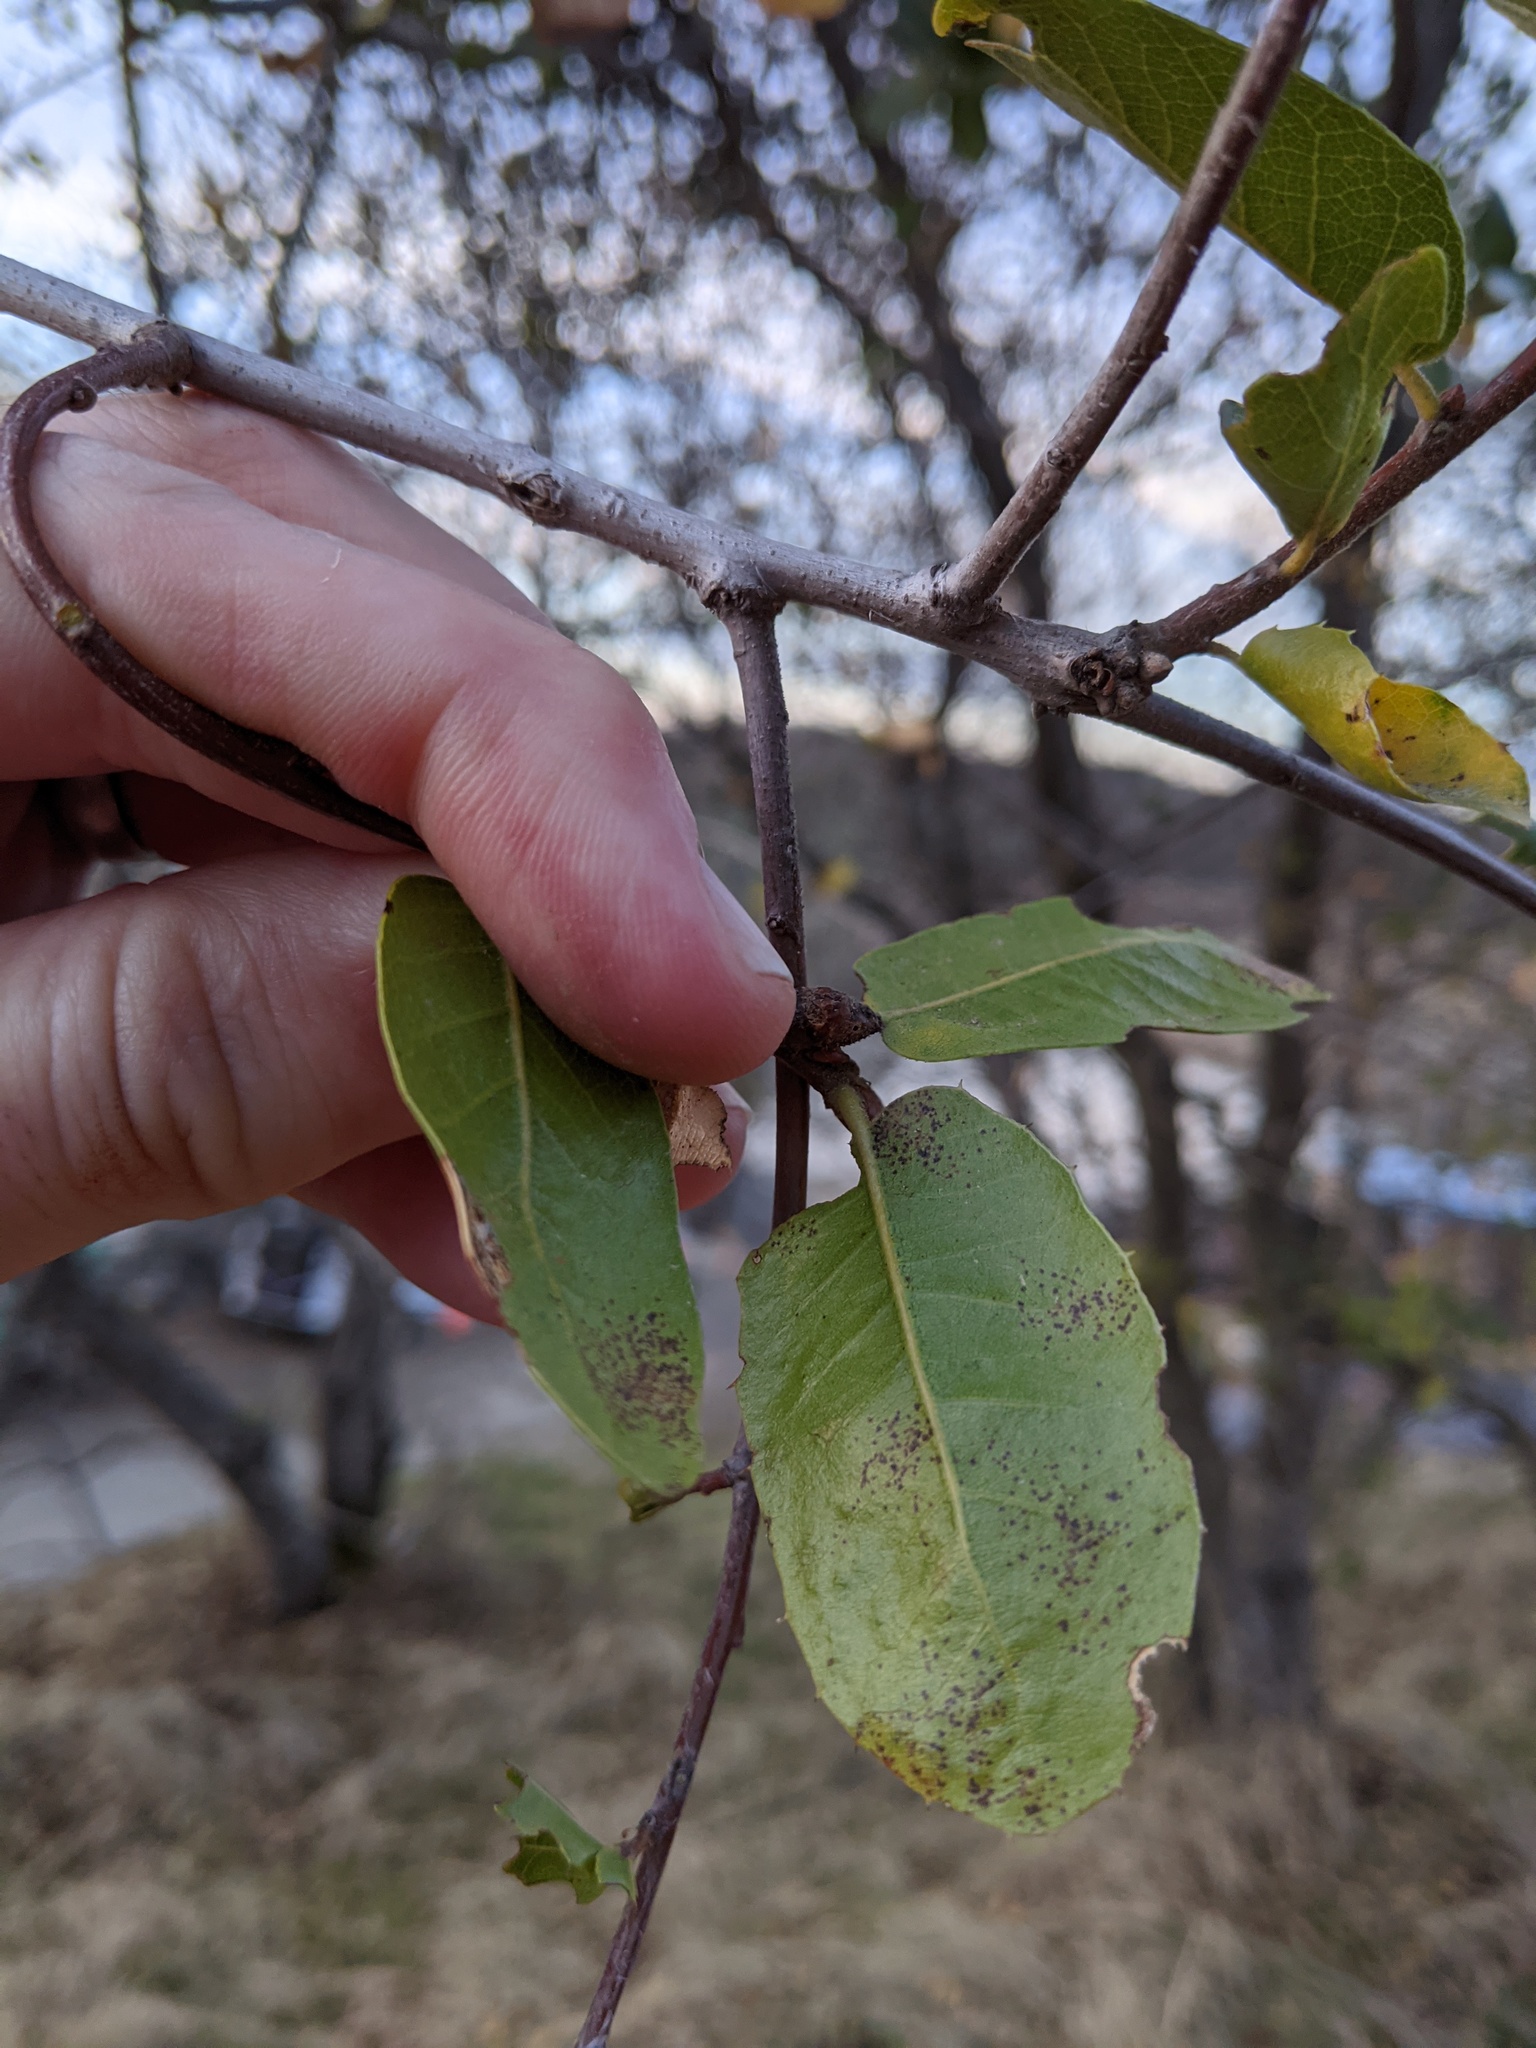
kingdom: Plantae
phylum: Tracheophyta
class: Magnoliopsida
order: Fagales
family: Fagaceae
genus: Quercus
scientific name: Quercus wislizeni
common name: Interior live oak
